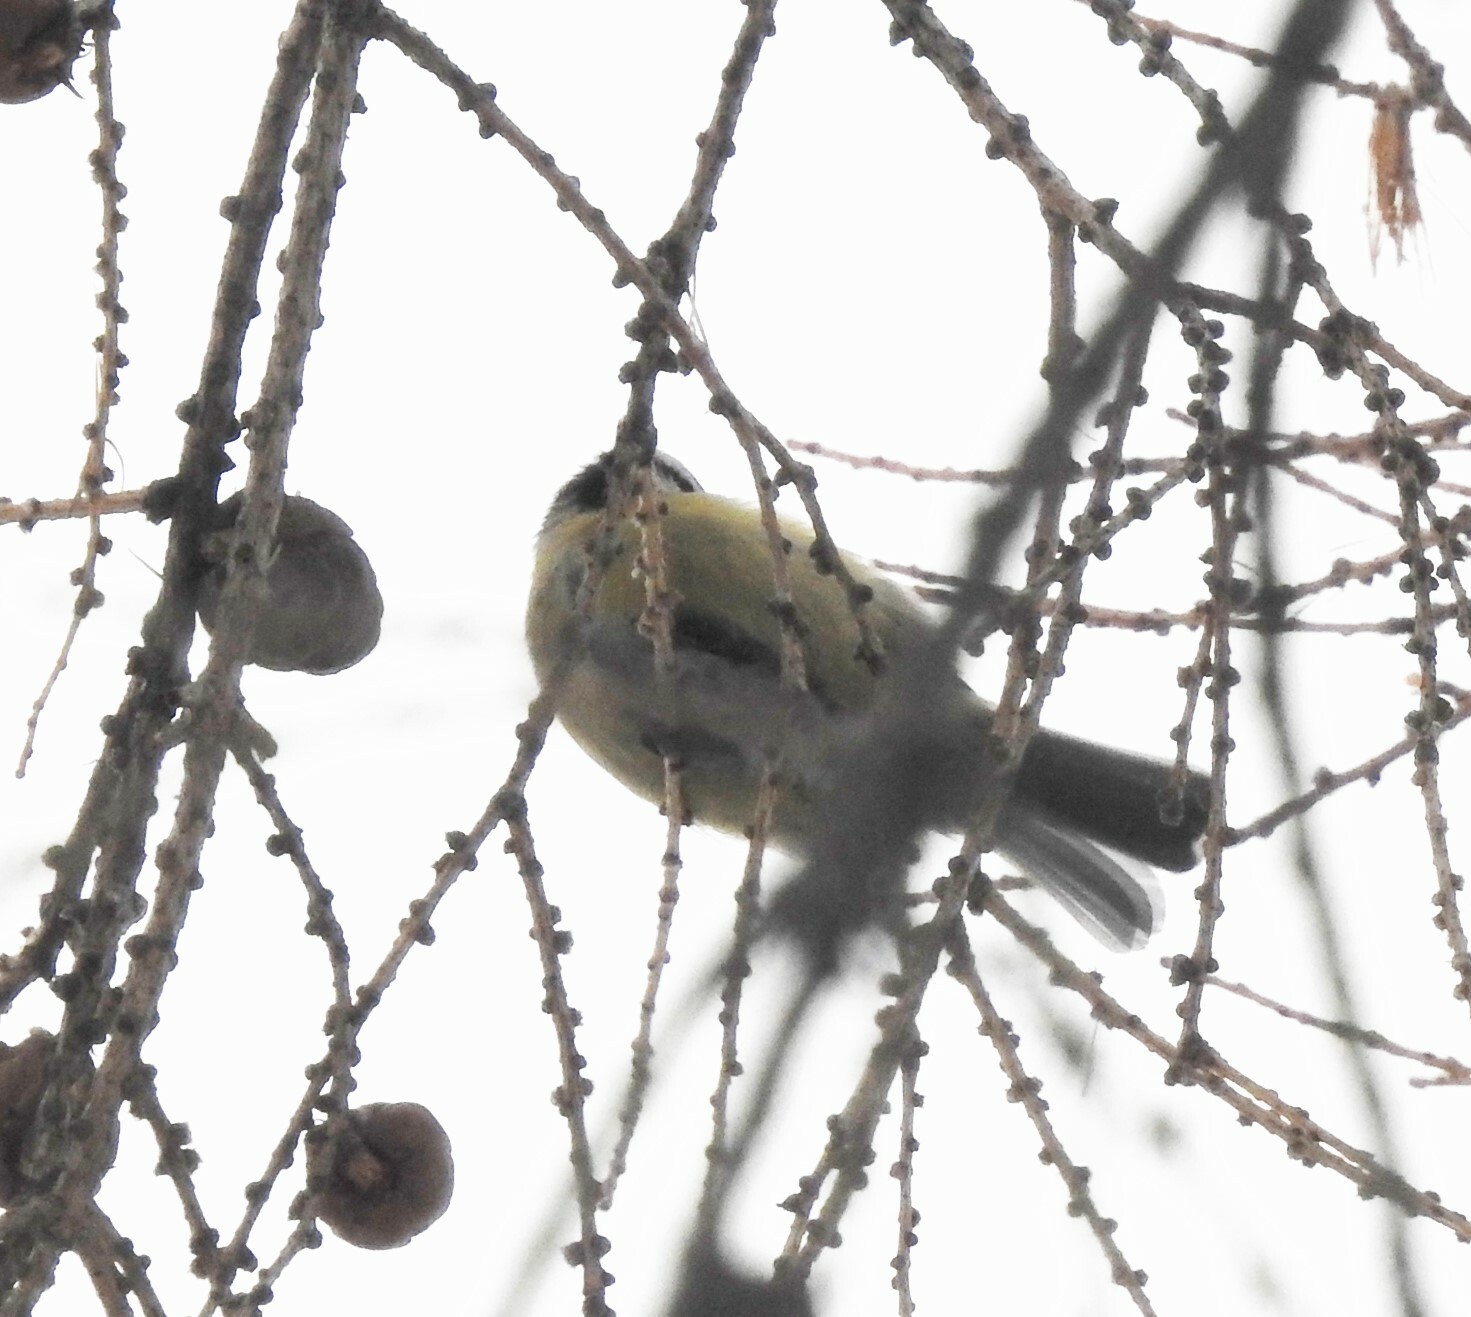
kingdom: Animalia
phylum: Chordata
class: Aves
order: Passeriformes
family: Paridae
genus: Cyanistes
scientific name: Cyanistes caeruleus
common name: Eurasian blue tit
